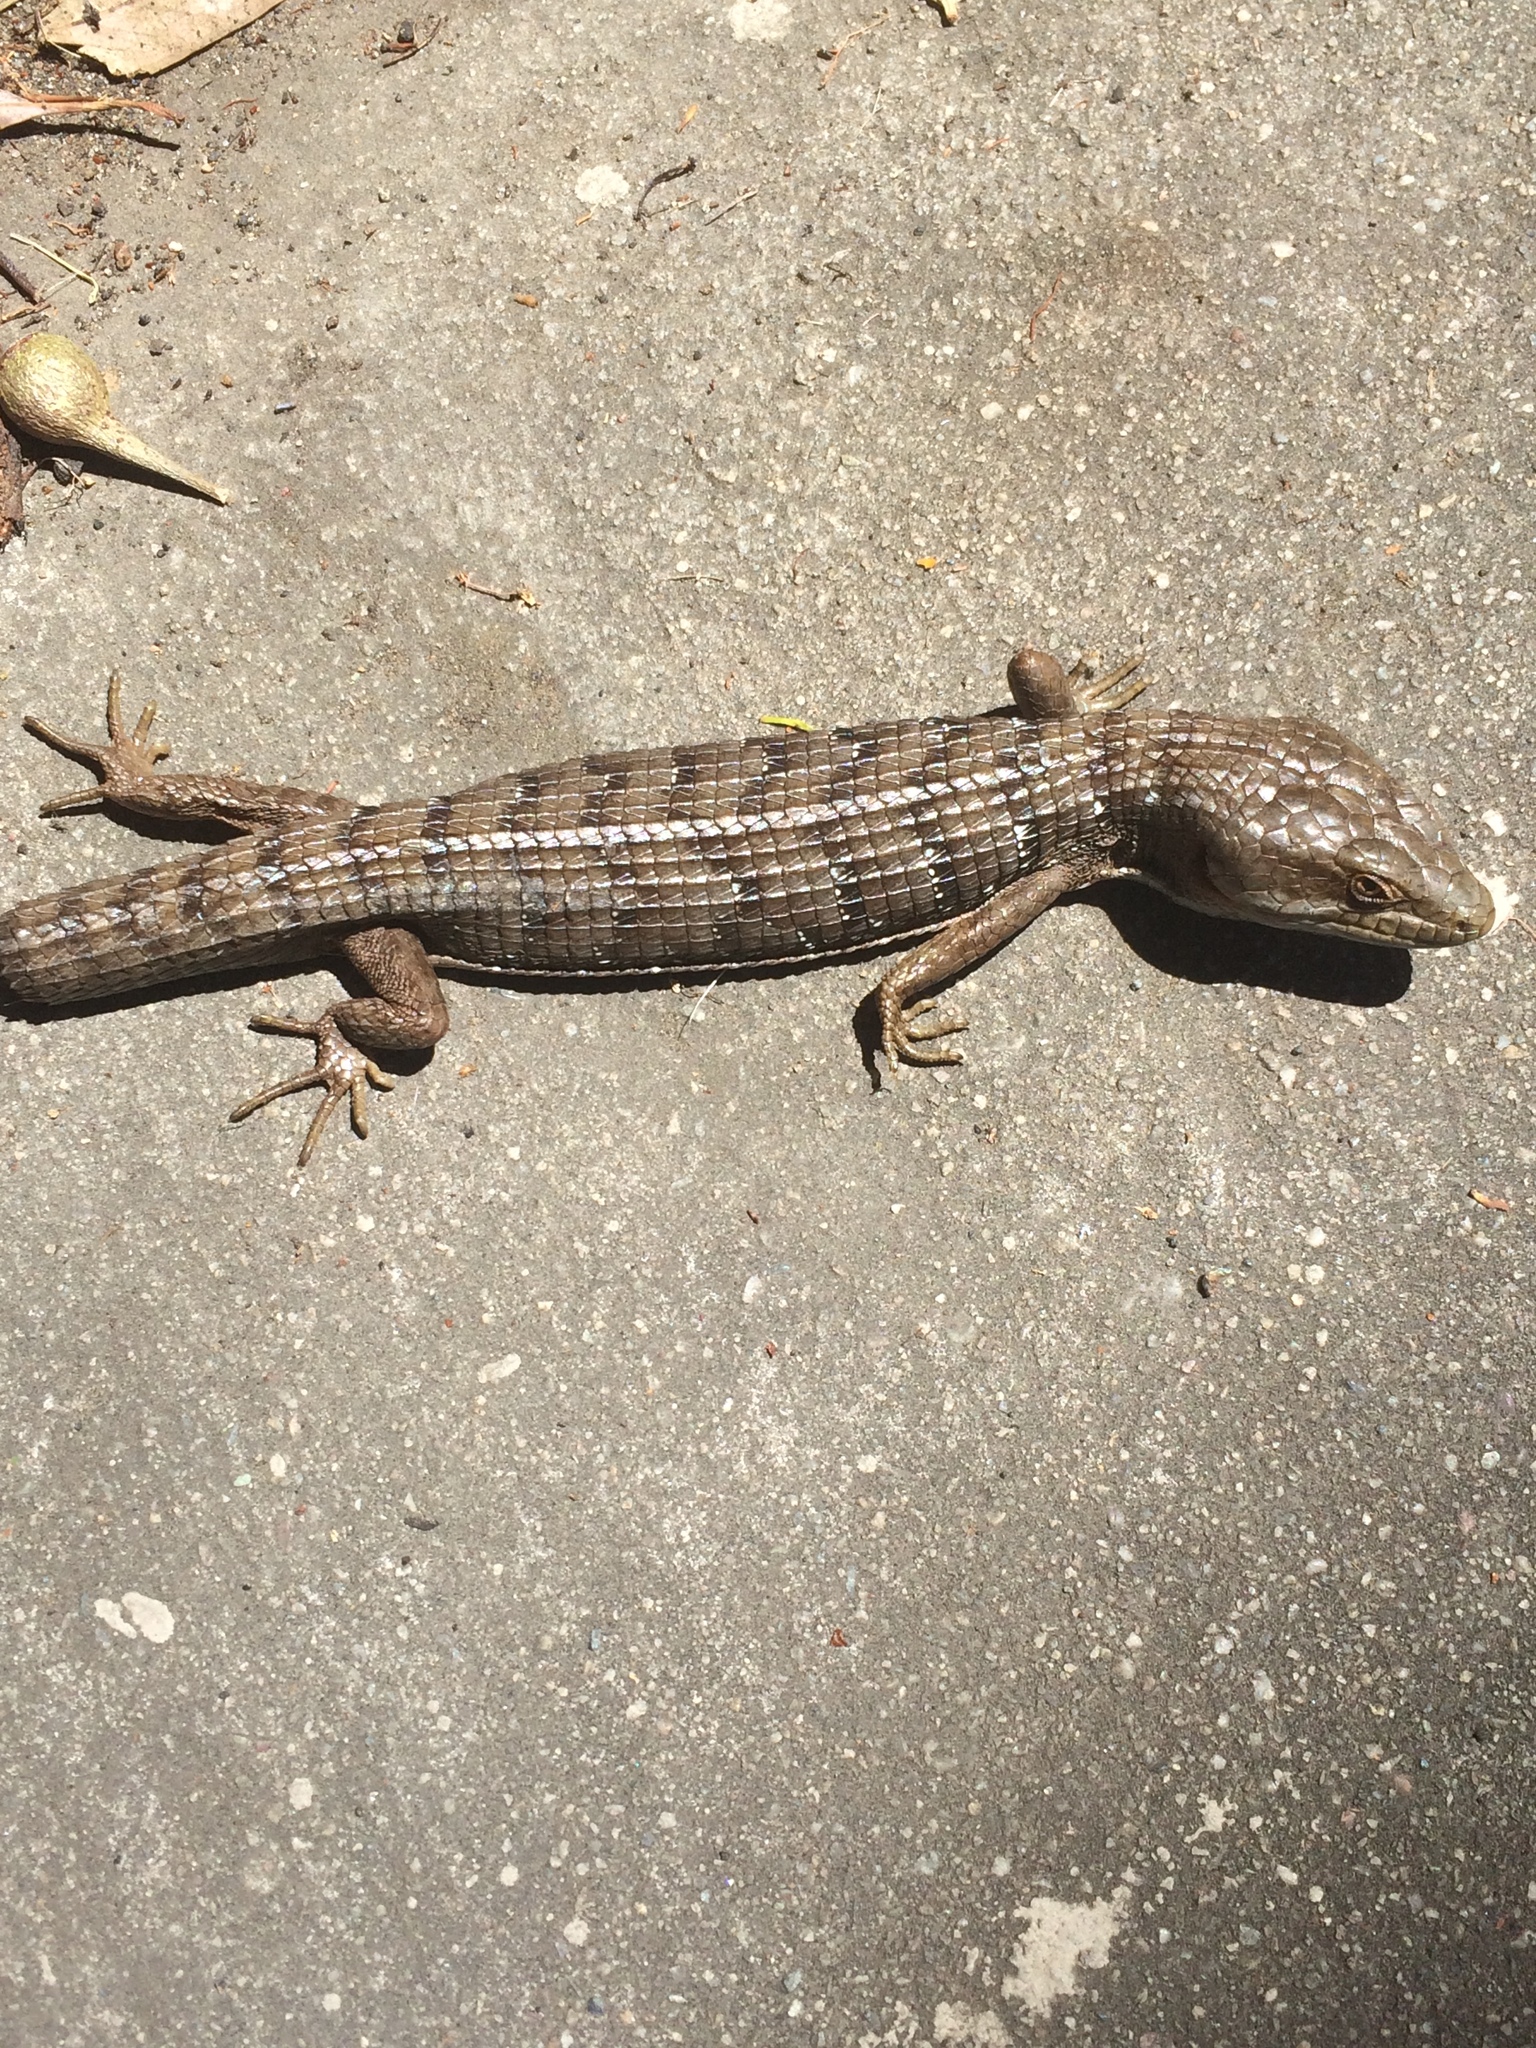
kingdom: Animalia
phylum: Chordata
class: Squamata
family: Anguidae
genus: Elgaria
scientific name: Elgaria multicarinata
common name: Southern alligator lizard
